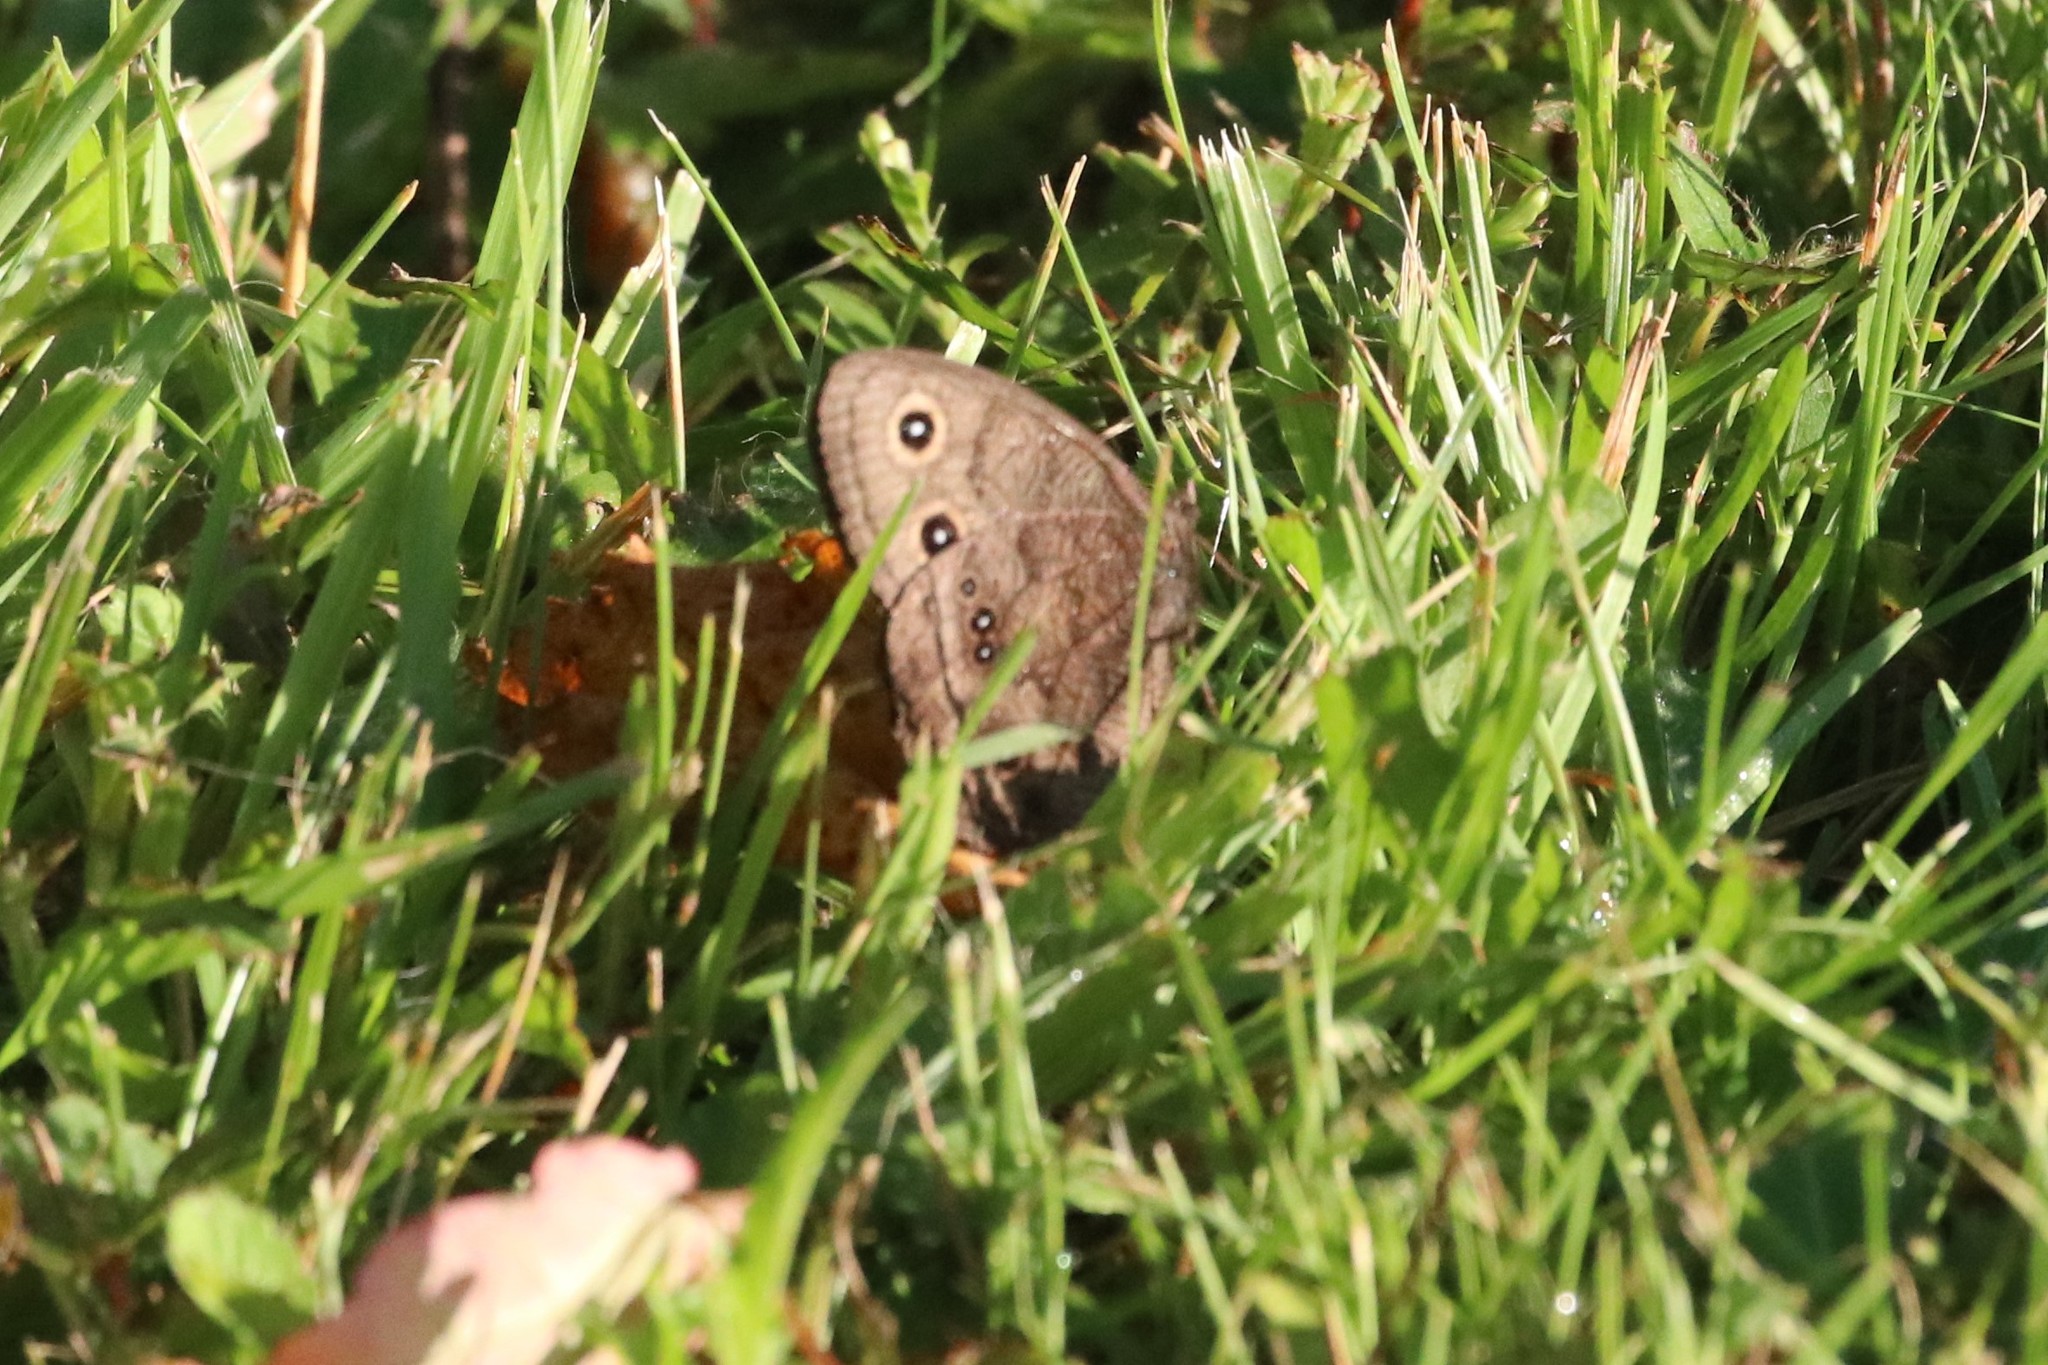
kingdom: Animalia
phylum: Arthropoda
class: Insecta
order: Lepidoptera
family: Nymphalidae
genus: Cercyonis
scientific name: Cercyonis pegala
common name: Common wood-nymph
